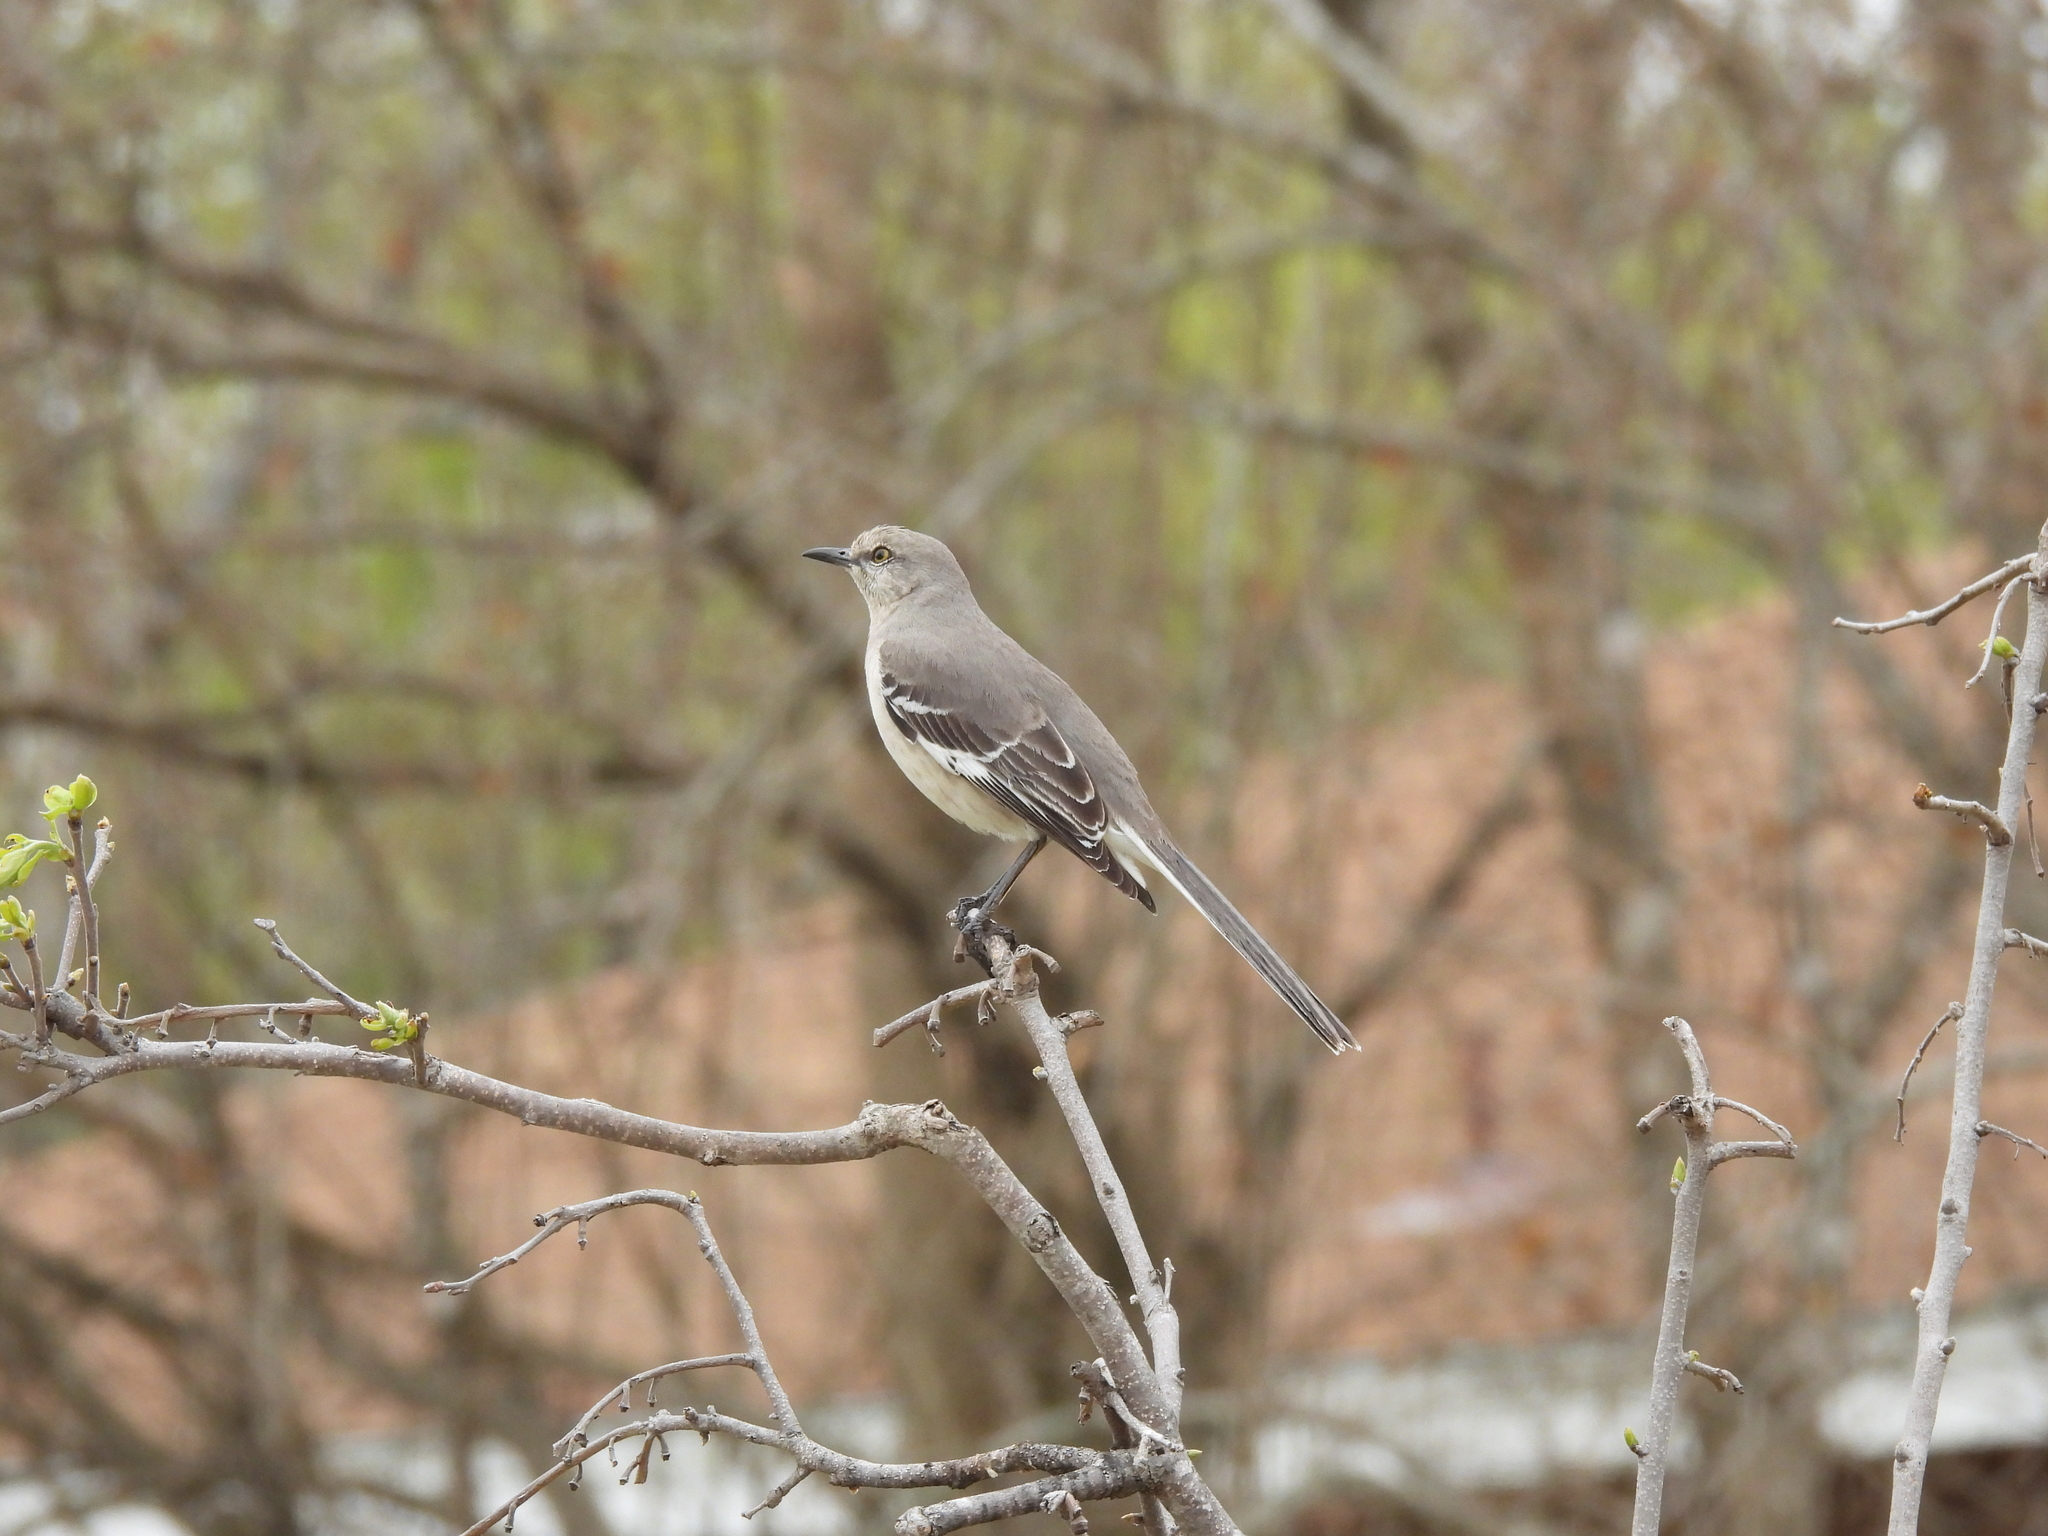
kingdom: Animalia
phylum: Chordata
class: Aves
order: Passeriformes
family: Mimidae
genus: Mimus
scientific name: Mimus polyglottos
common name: Northern mockingbird
